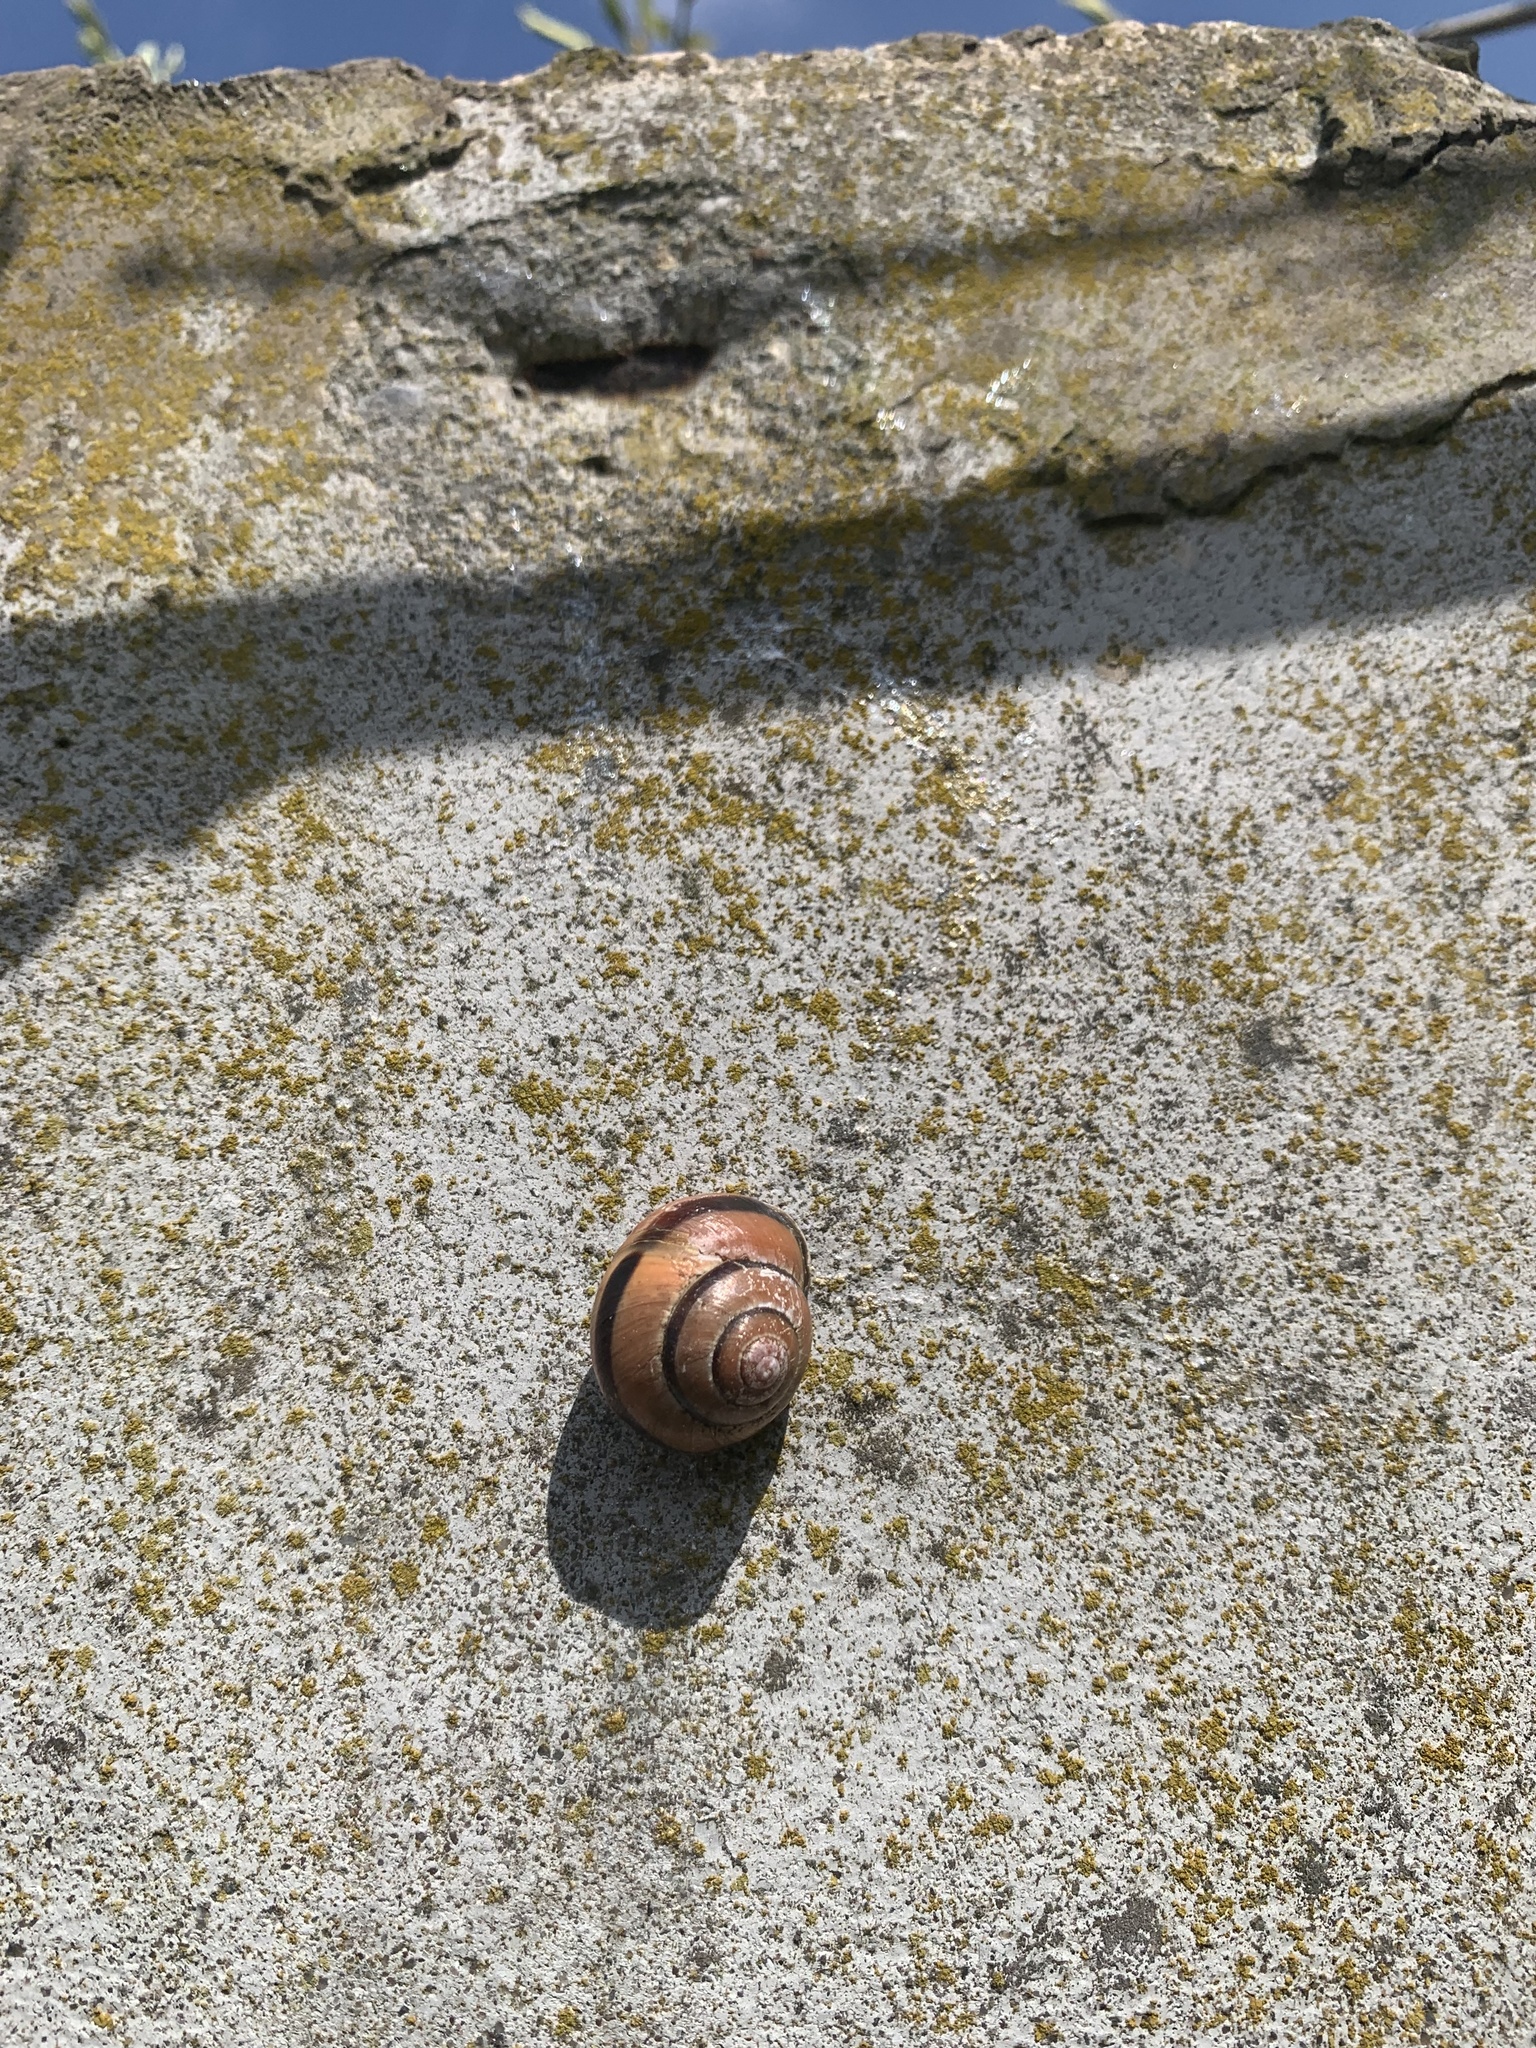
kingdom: Animalia
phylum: Mollusca
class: Gastropoda
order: Stylommatophora
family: Helicidae
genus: Cepaea
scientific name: Cepaea nemoralis
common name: Grovesnail
